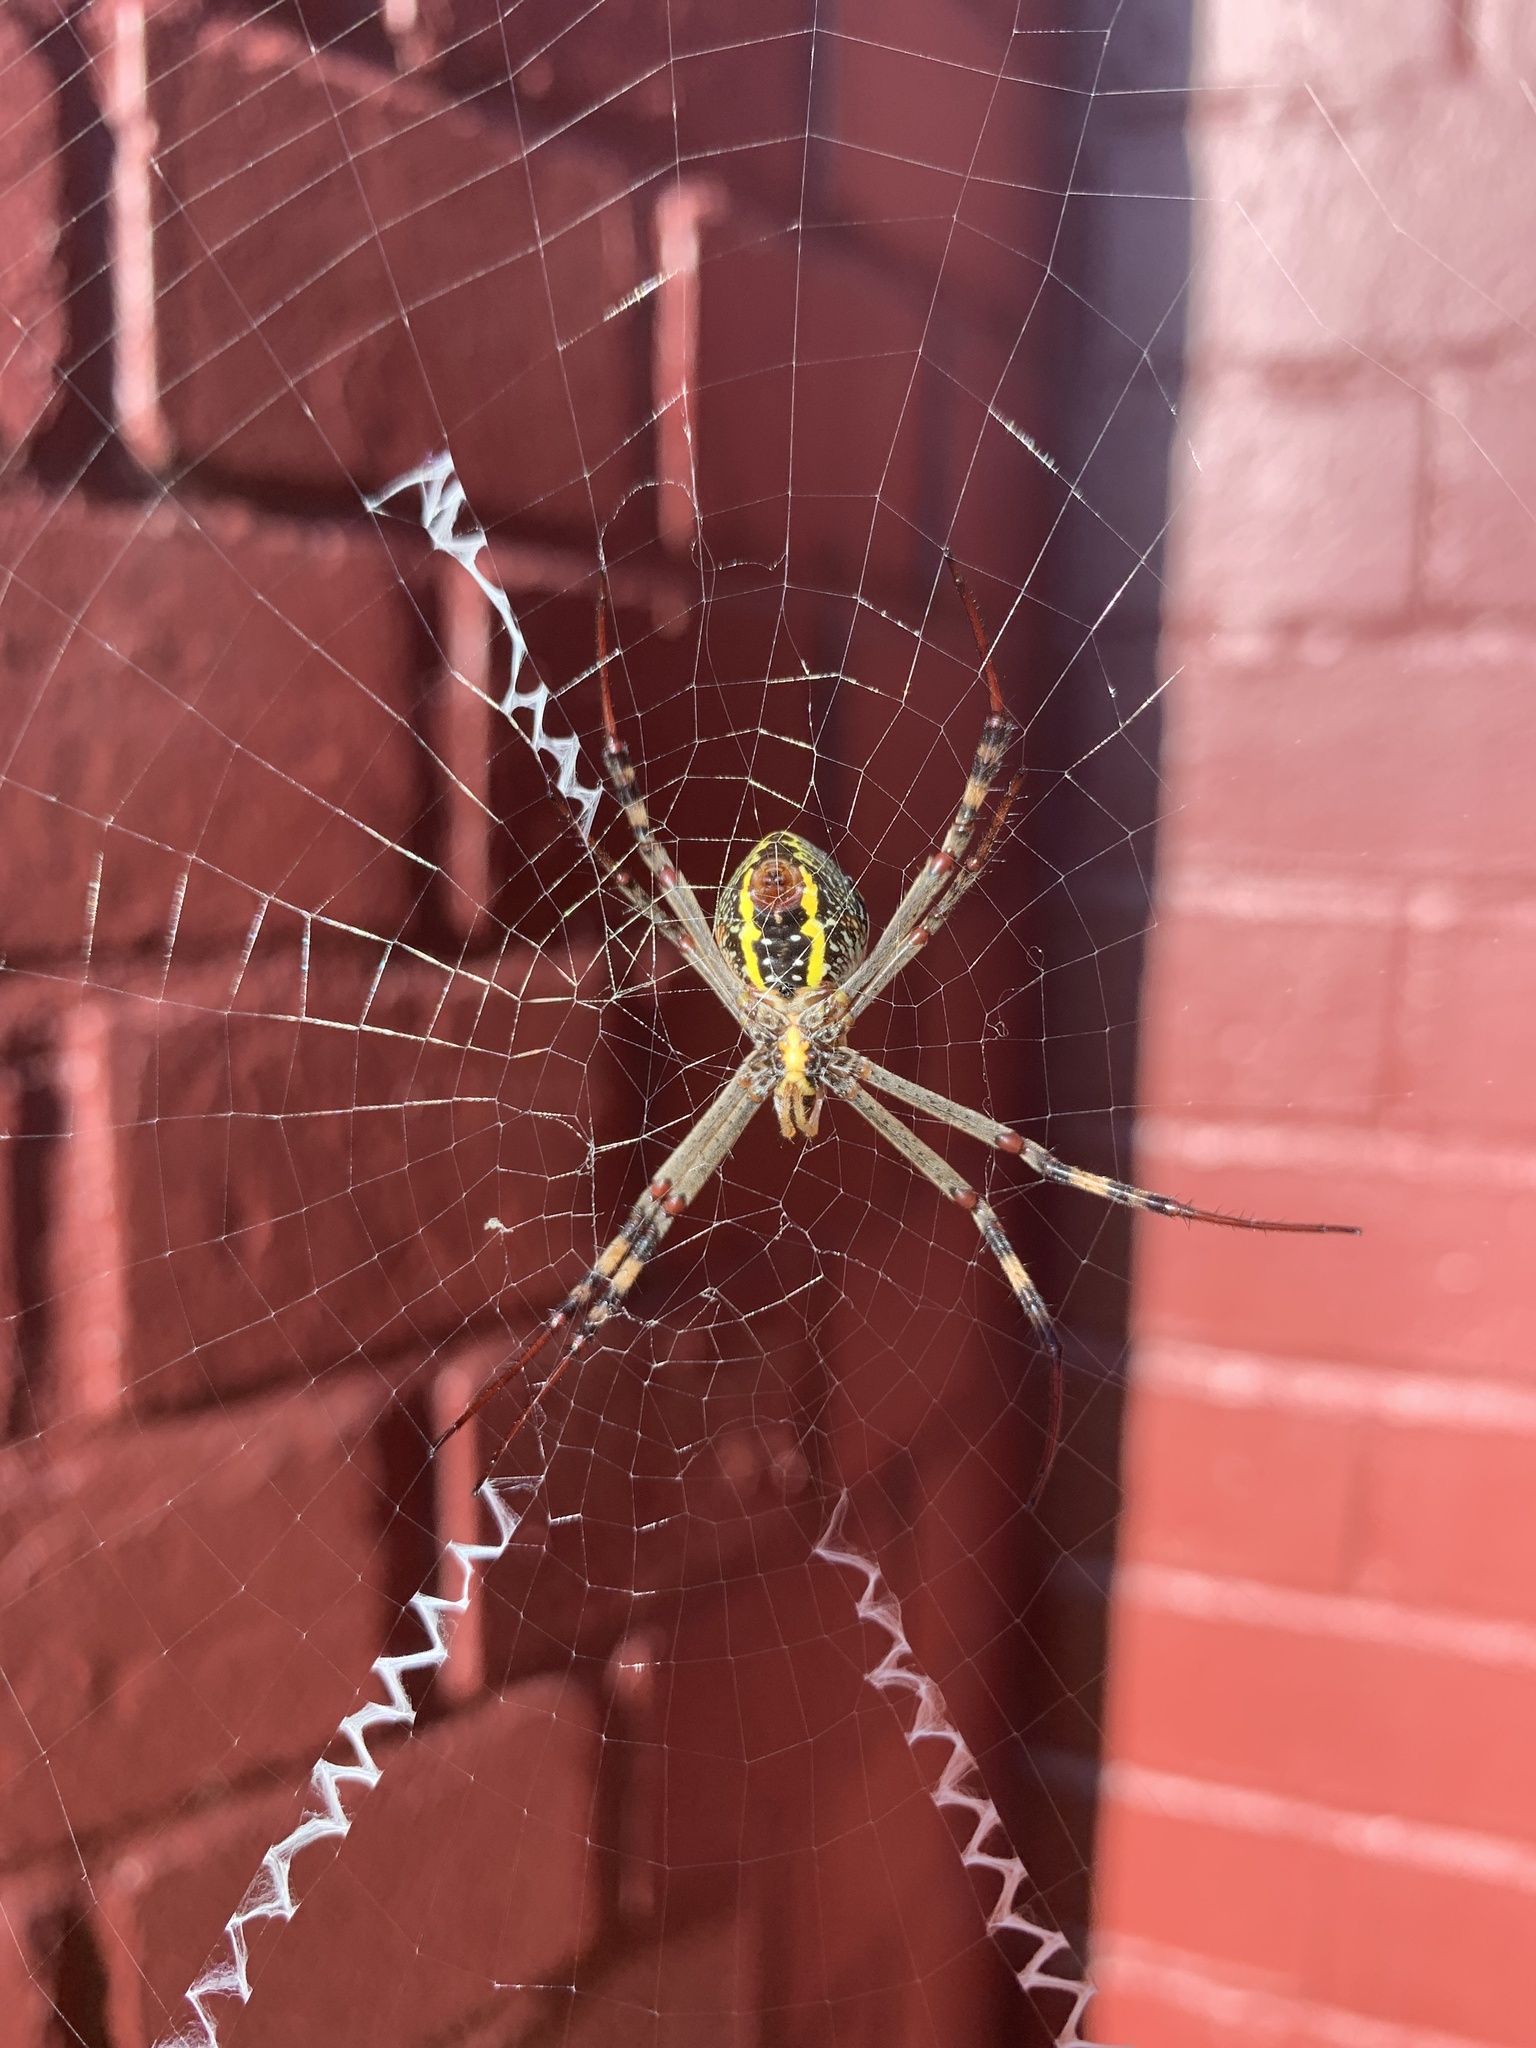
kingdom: Animalia
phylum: Arthropoda
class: Arachnida
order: Araneae
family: Araneidae
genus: Argiope
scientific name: Argiope keyserlingi
